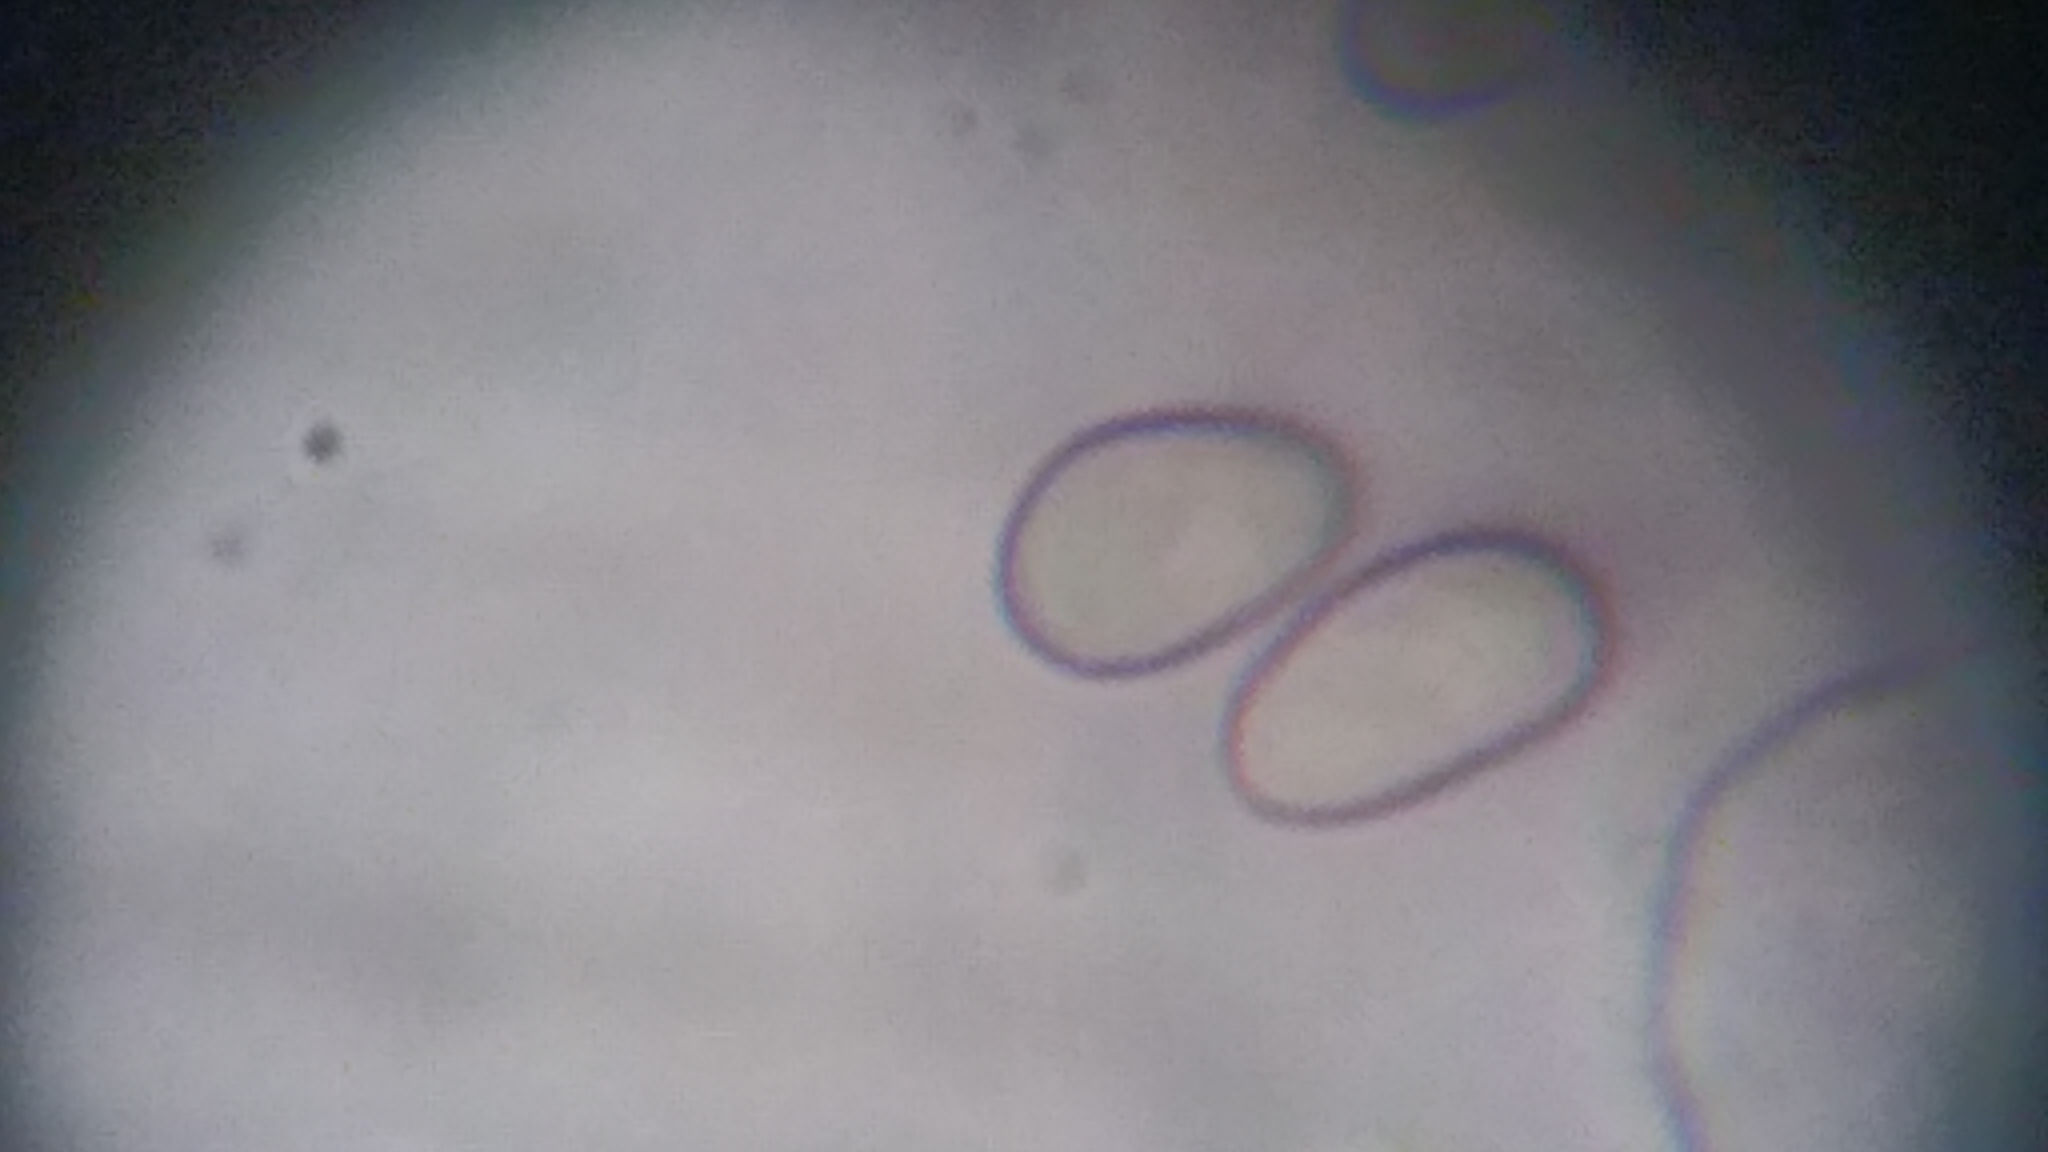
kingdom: Fungi
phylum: Basidiomycota
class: Agaricomycetes
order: Agaricales
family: Psathyrellaceae
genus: Homophron
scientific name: Homophron spadiceum
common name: Chestnut brittlestem
